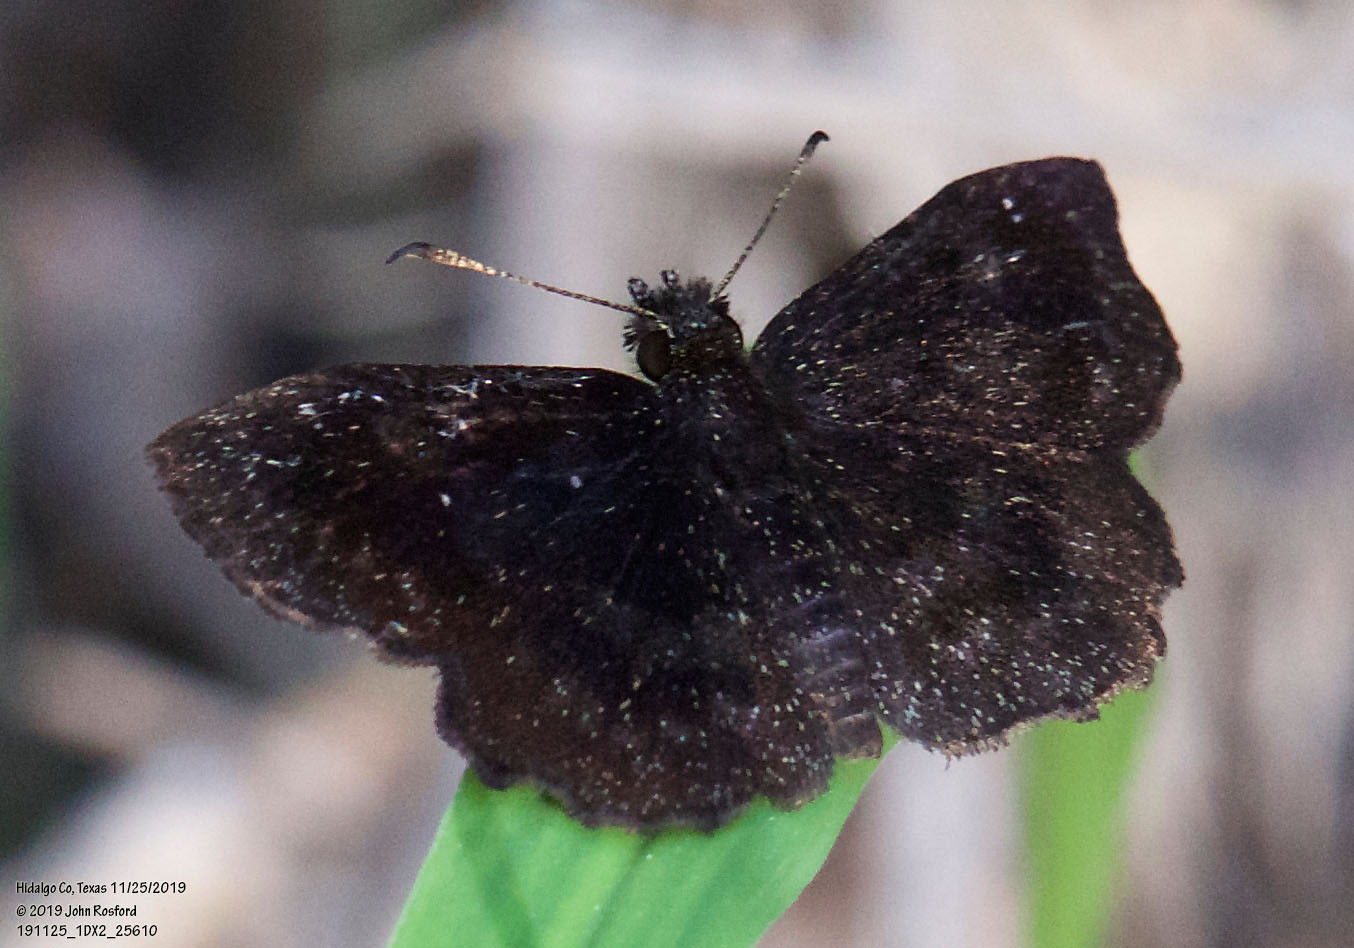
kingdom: Animalia
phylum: Arthropoda
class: Insecta
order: Lepidoptera
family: Hesperiidae
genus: Staphylus
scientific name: Staphylus mazans
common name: Mazans scallopwing
